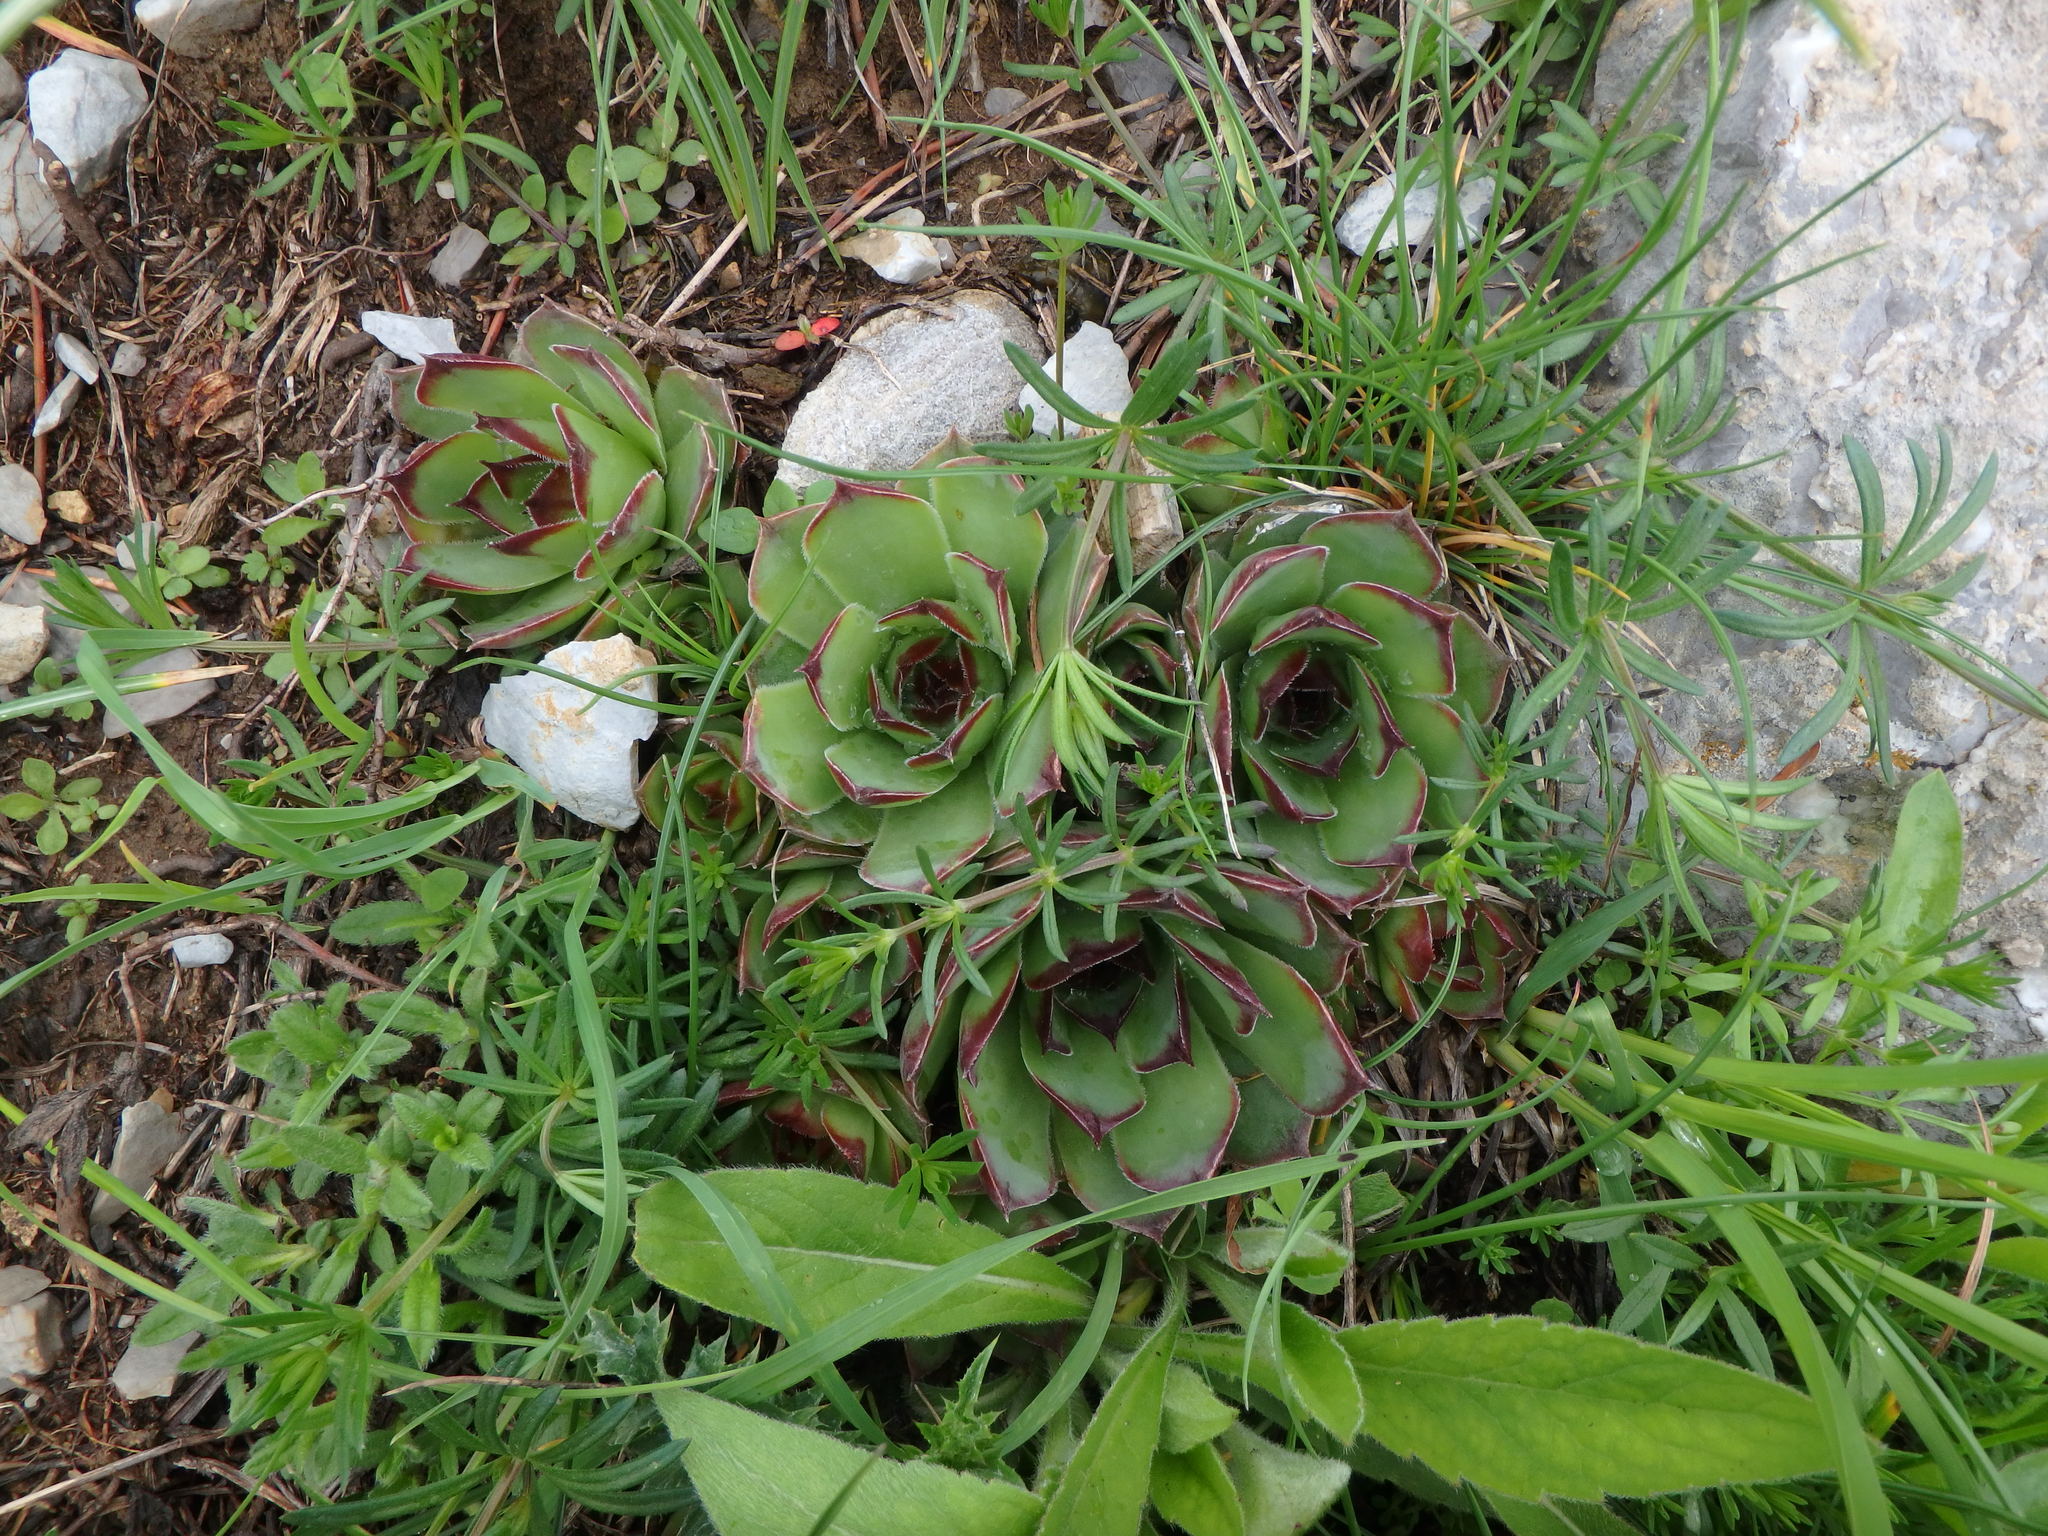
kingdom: Plantae
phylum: Tracheophyta
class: Magnoliopsida
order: Saxifragales
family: Crassulaceae
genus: Sempervivum
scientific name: Sempervivum tectorum
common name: House-leek
